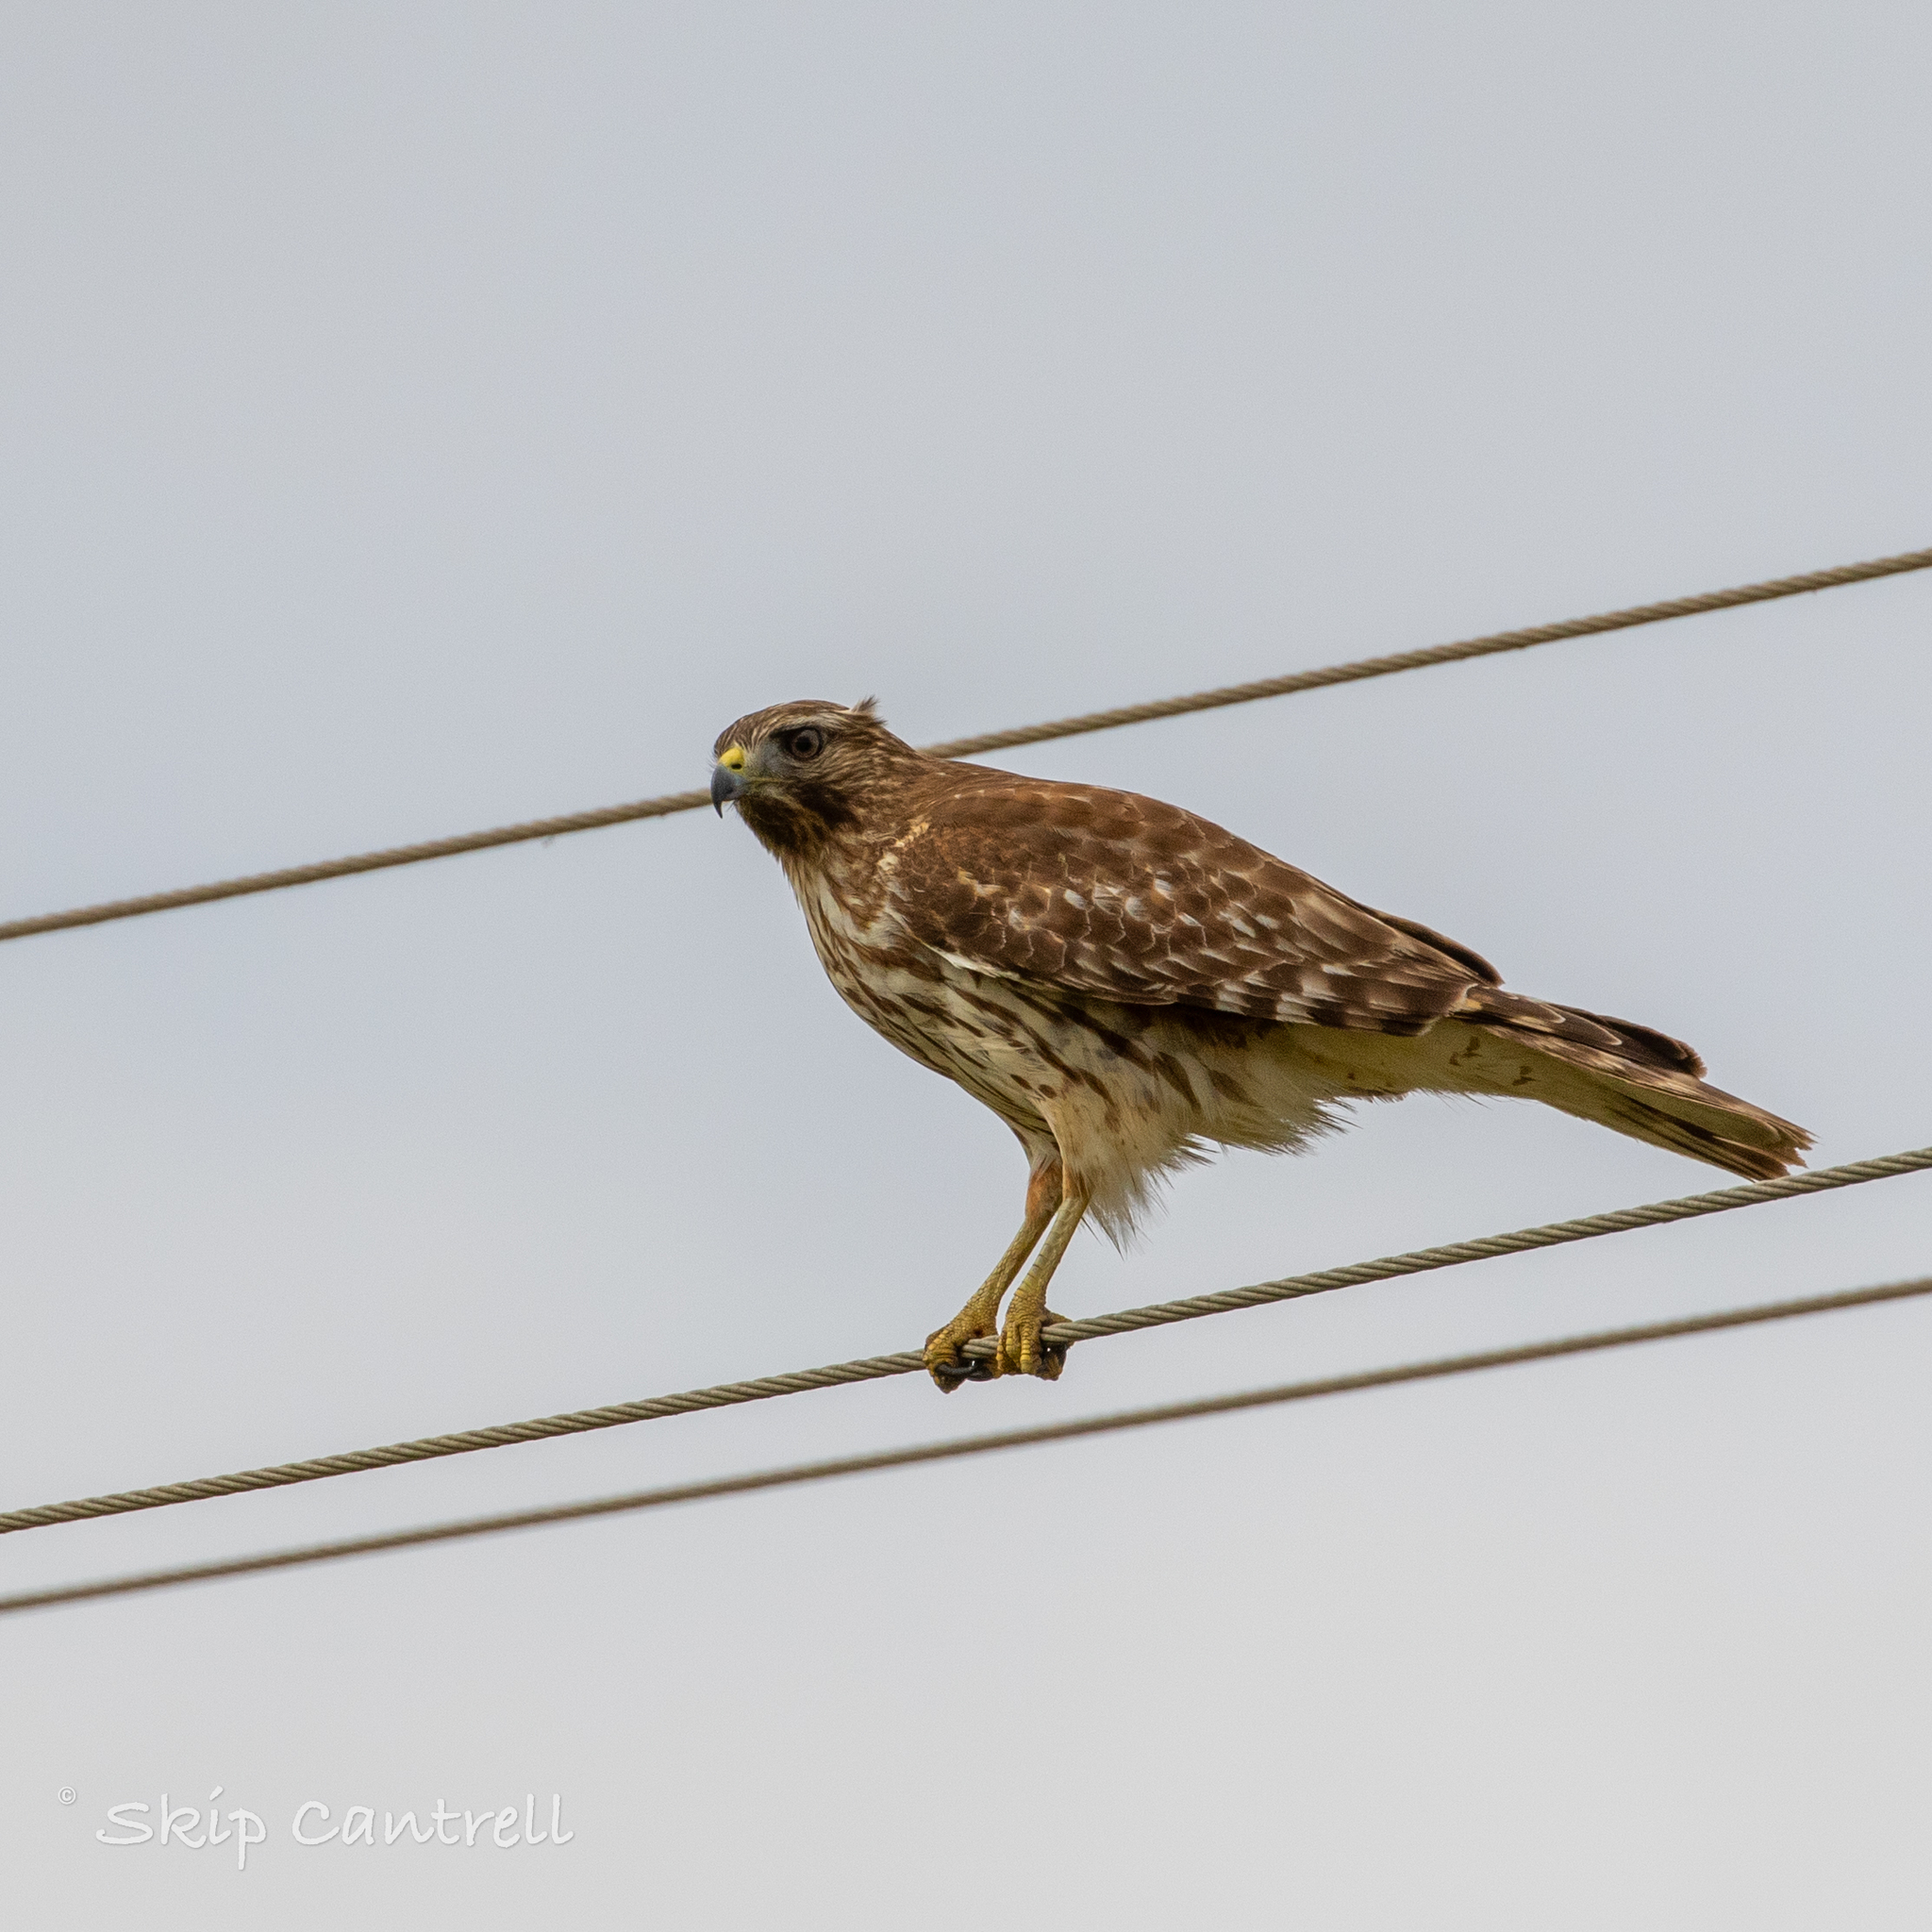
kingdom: Animalia
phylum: Chordata
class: Aves
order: Accipitriformes
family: Accipitridae
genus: Buteo
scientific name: Buteo lineatus
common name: Red-shouldered hawk
